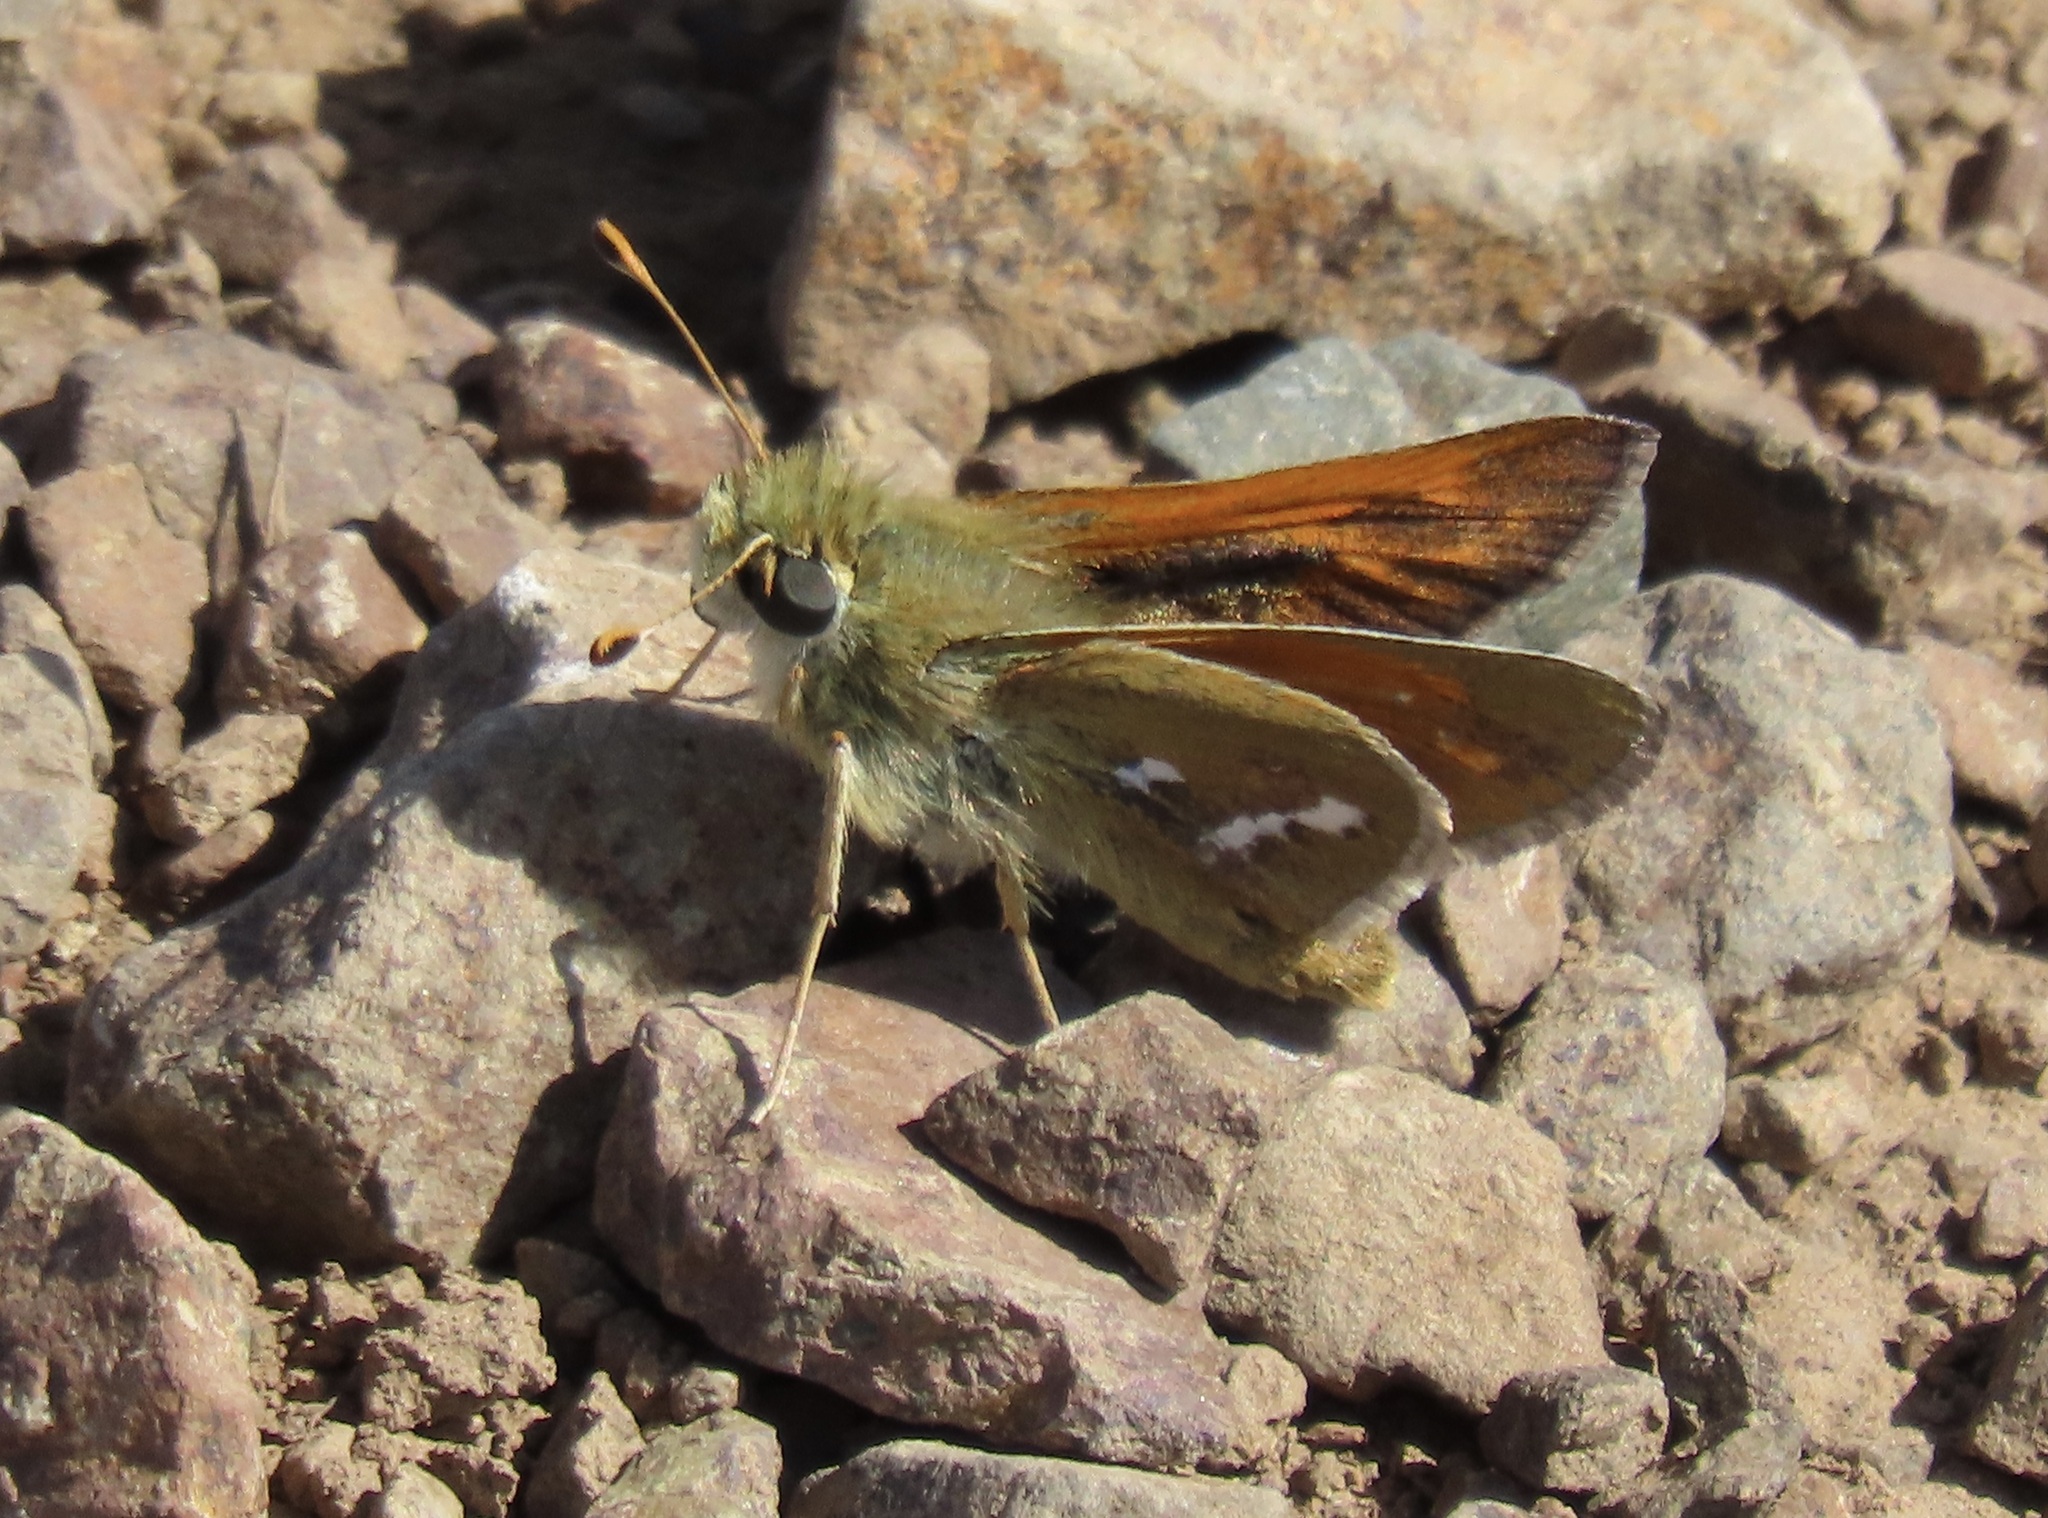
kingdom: Animalia
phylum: Arthropoda
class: Insecta
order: Lepidoptera
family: Hesperiidae
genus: Hesperia
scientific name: Hesperia columbia
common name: Columbian skipper
